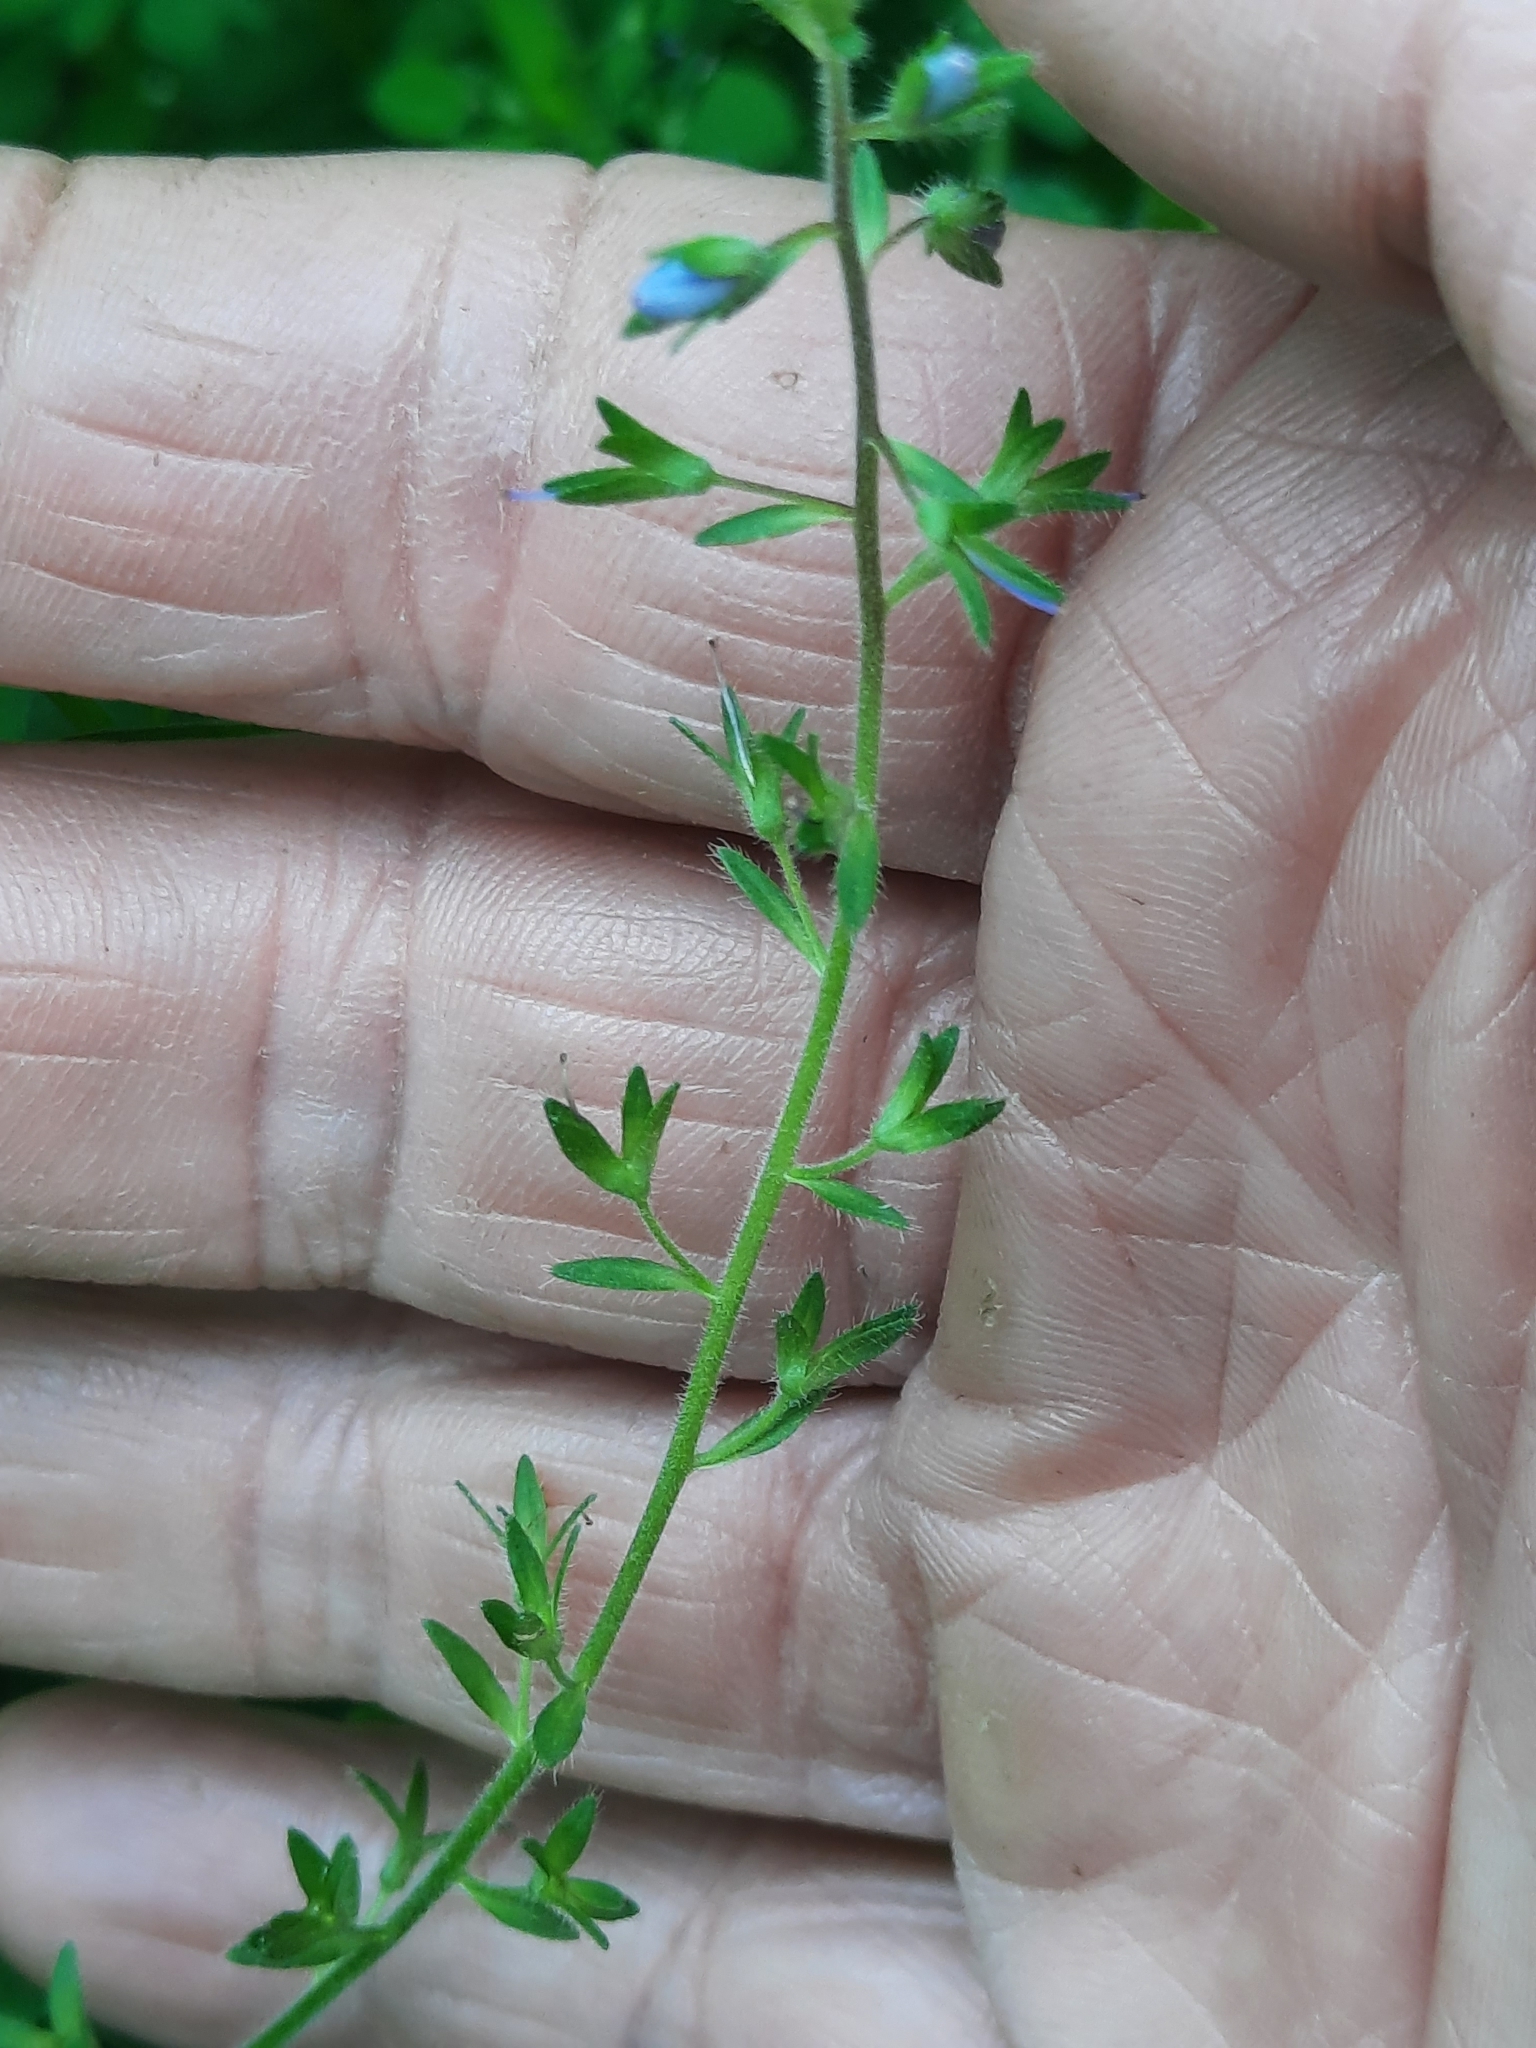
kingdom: Plantae
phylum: Tracheophyta
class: Magnoliopsida
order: Lamiales
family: Plantaginaceae
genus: Veronica
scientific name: Veronica chamaedrys
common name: Germander speedwell
